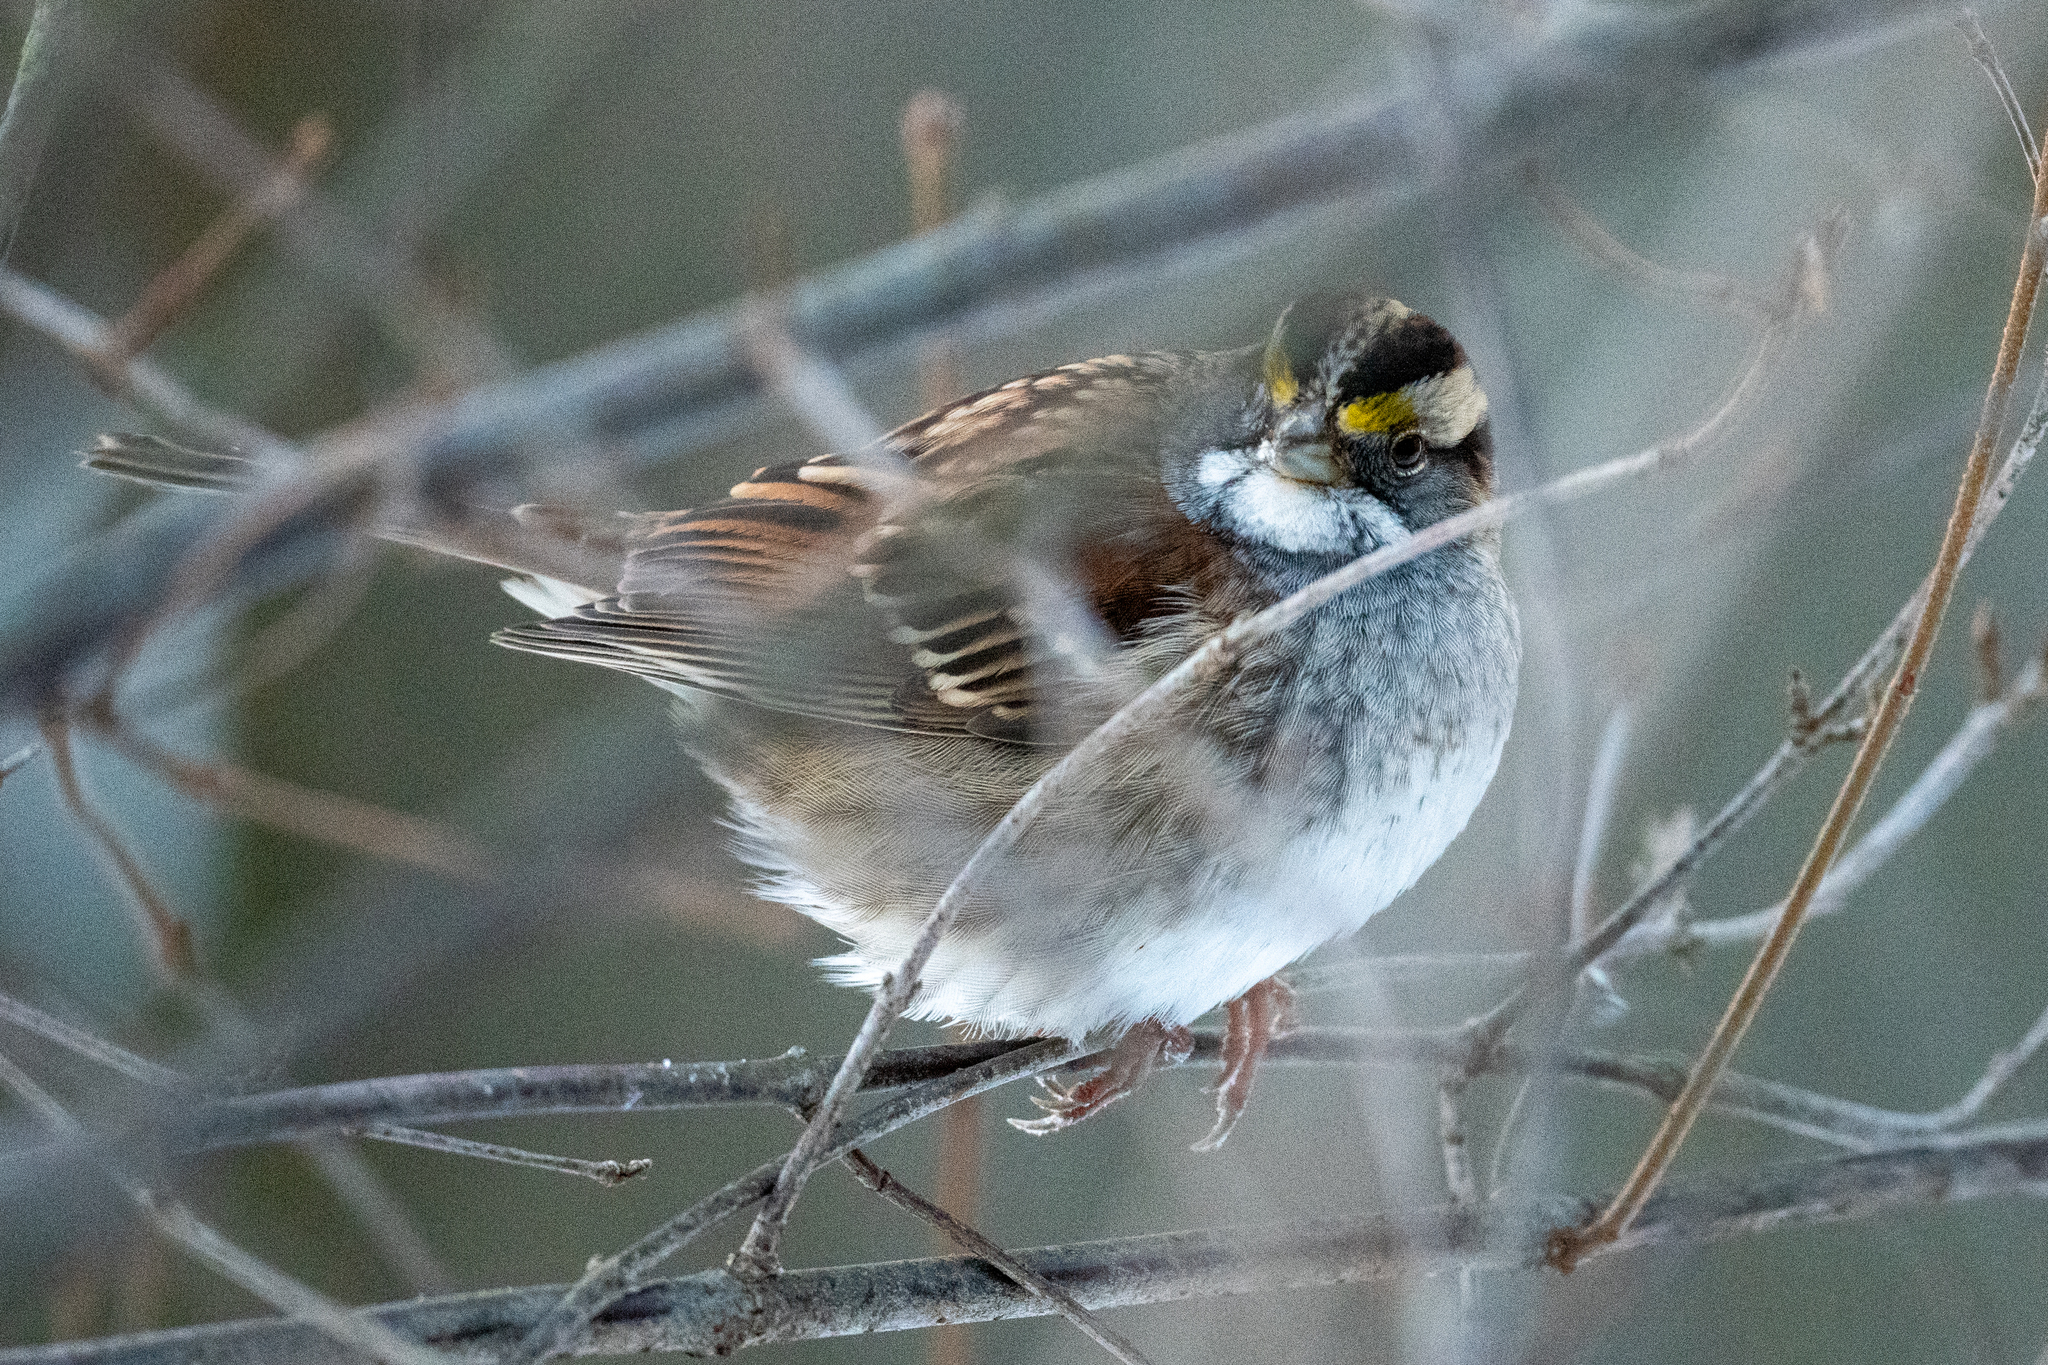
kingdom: Animalia
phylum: Chordata
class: Aves
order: Passeriformes
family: Passerellidae
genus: Zonotrichia
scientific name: Zonotrichia albicollis
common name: White-throated sparrow
